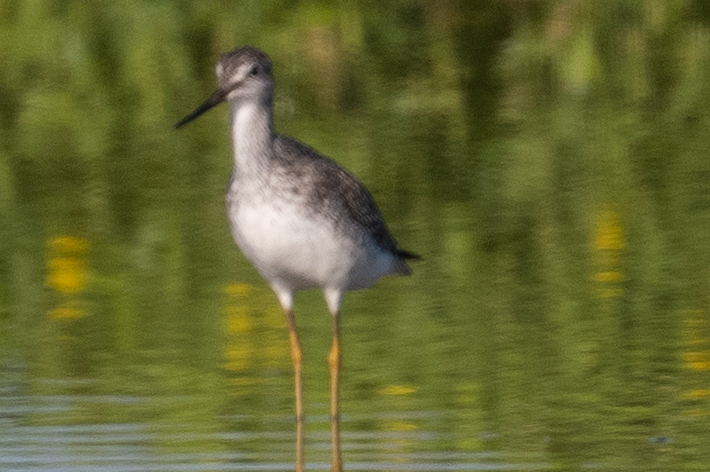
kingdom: Animalia
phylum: Chordata
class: Aves
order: Charadriiformes
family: Scolopacidae
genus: Tringa
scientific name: Tringa melanoleuca
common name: Greater yellowlegs
